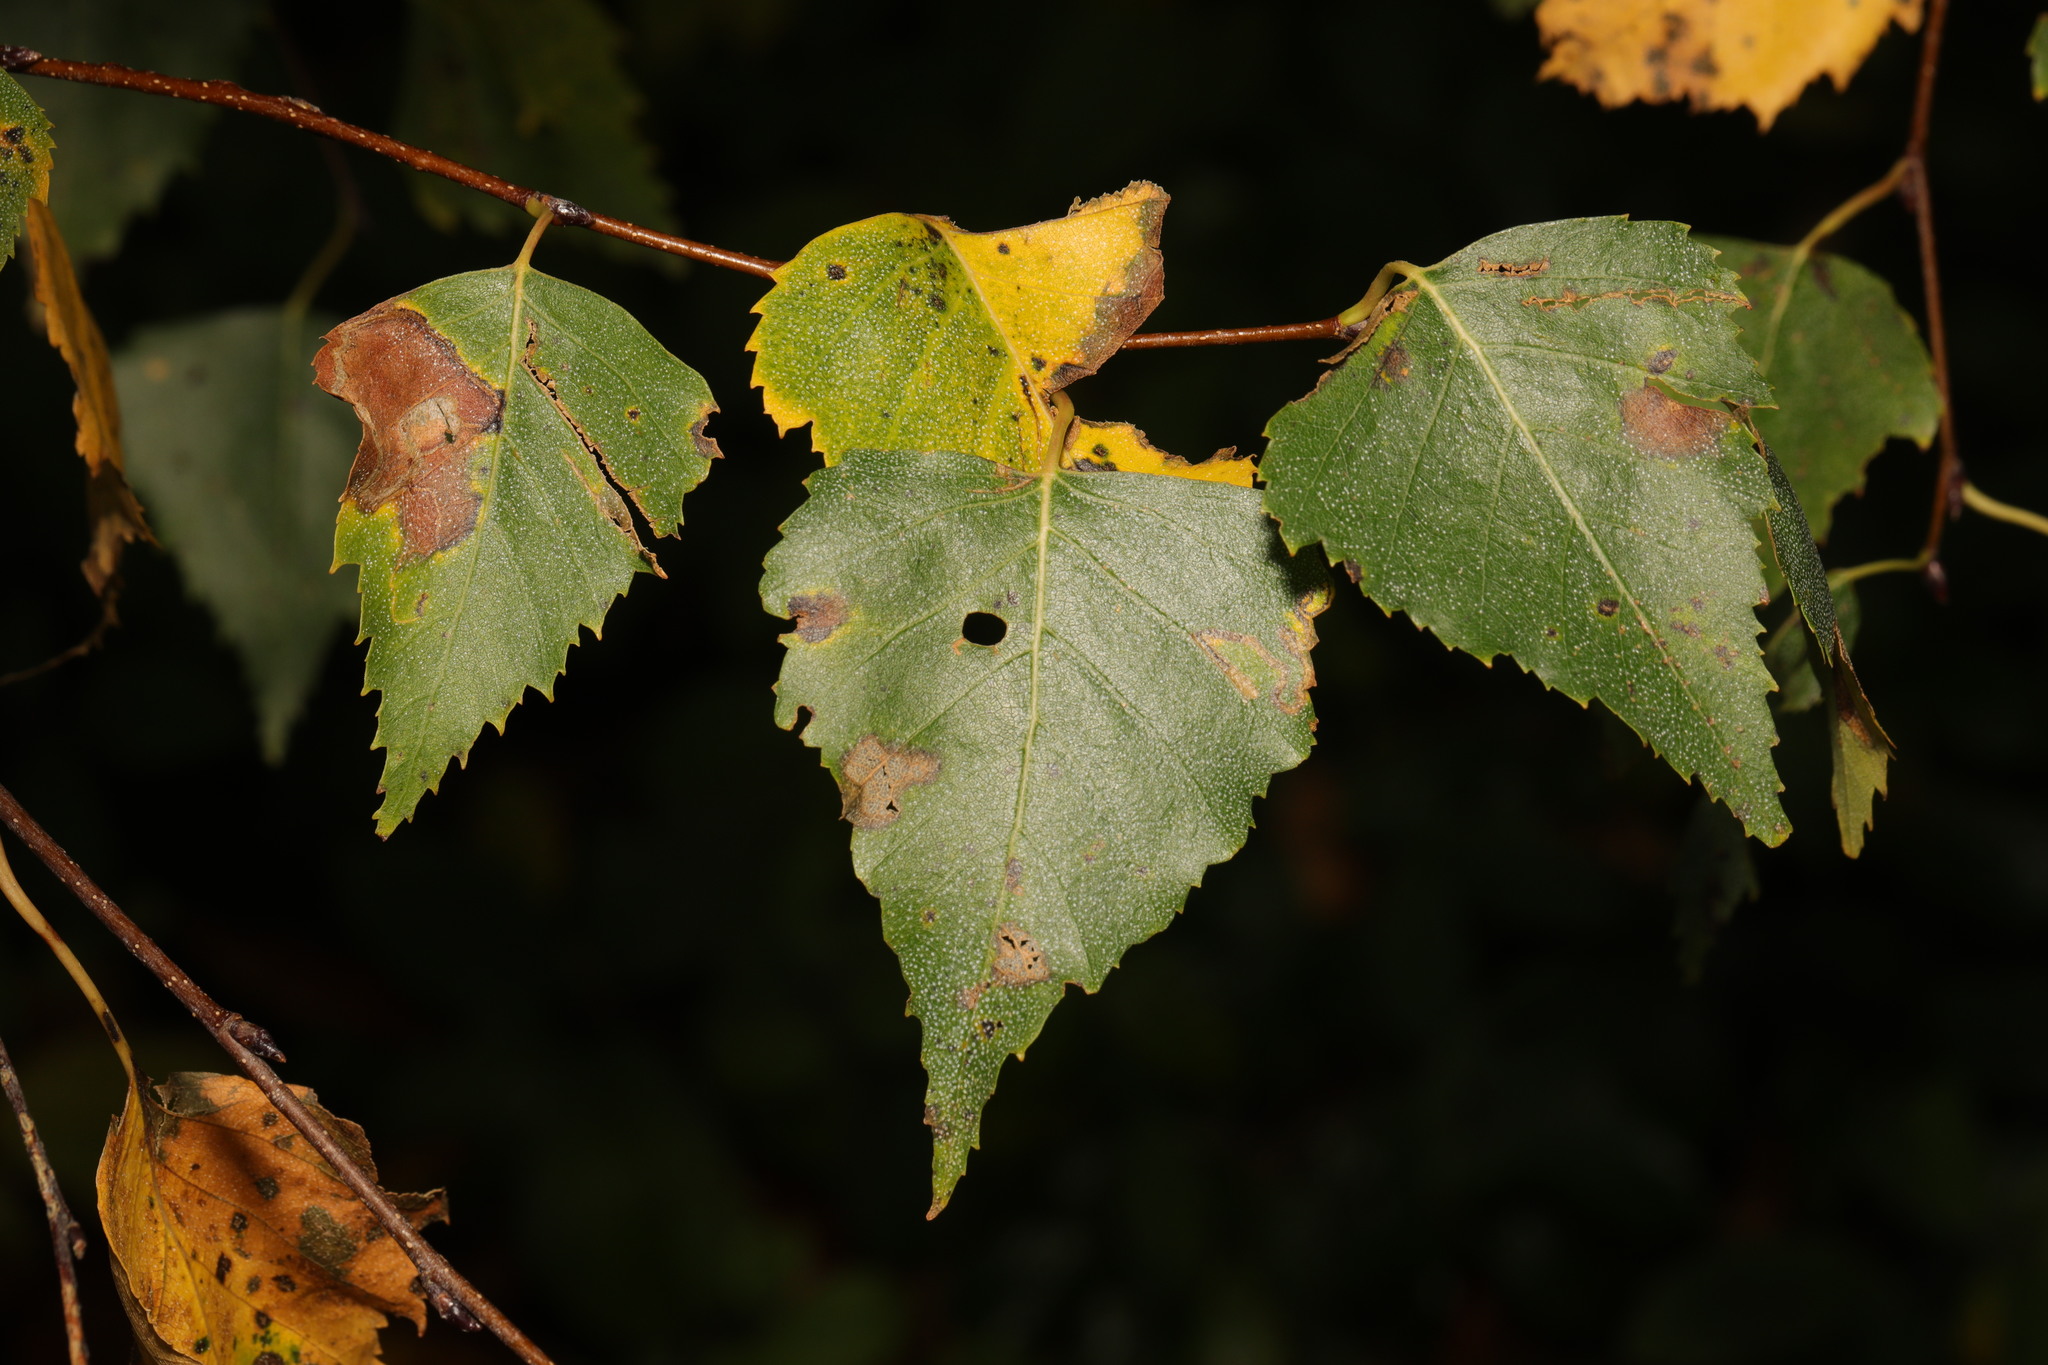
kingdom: Plantae
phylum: Tracheophyta
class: Magnoliopsida
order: Fagales
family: Betulaceae
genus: Betula
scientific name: Betula pendula
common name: Silver birch
